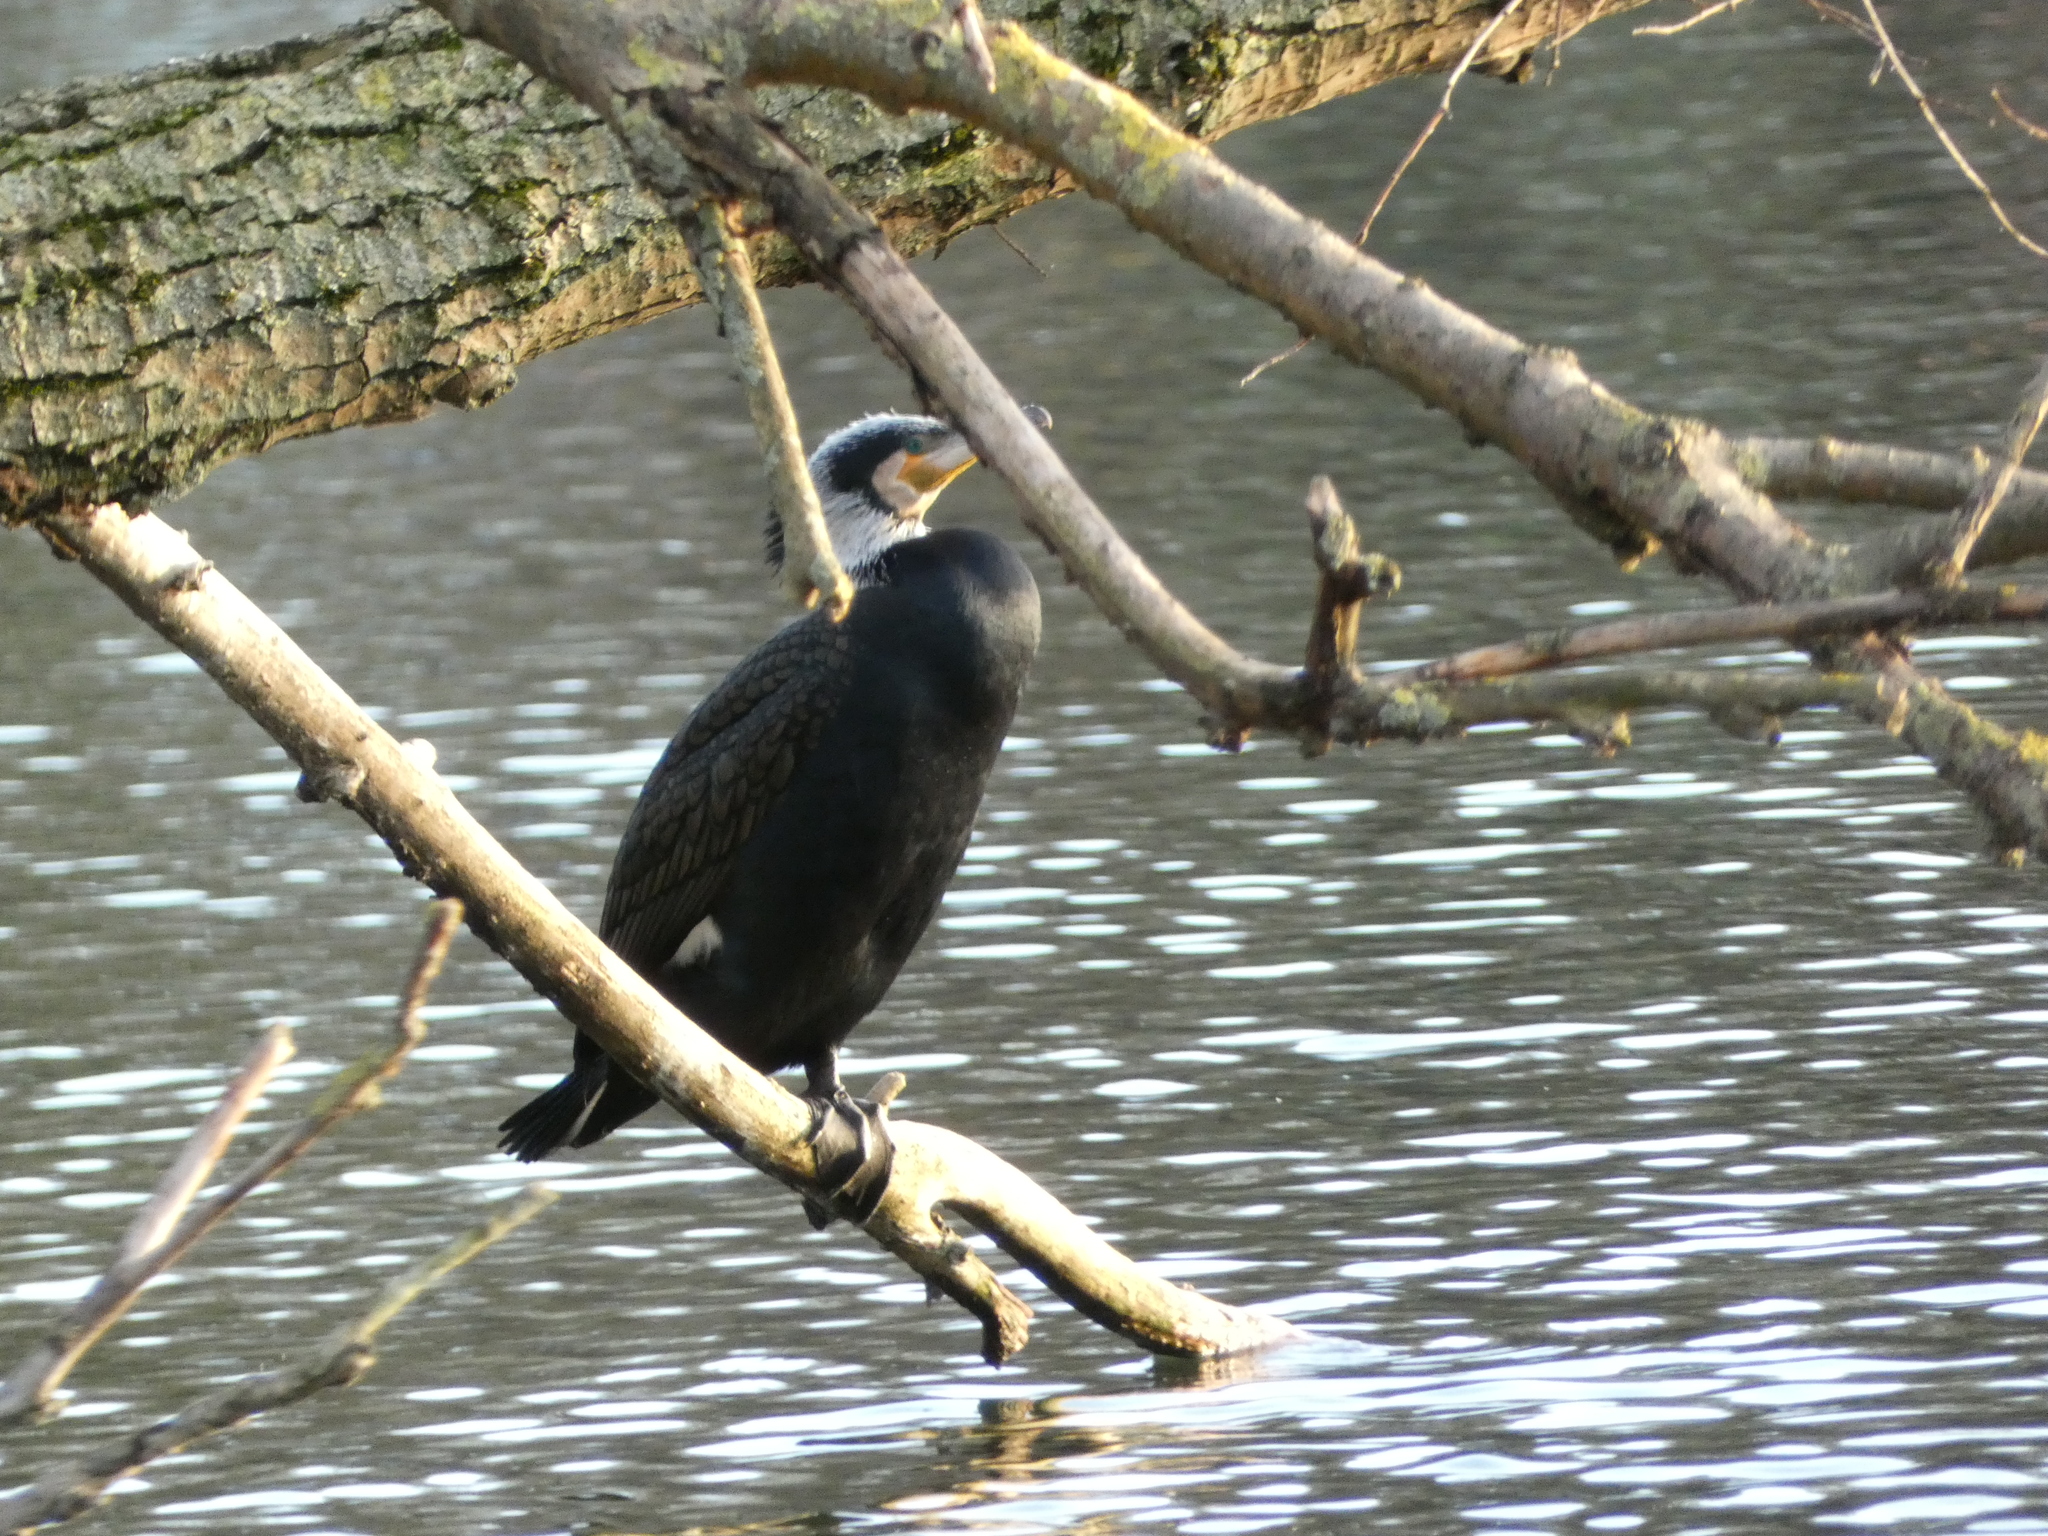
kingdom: Animalia
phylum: Chordata
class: Aves
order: Suliformes
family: Phalacrocoracidae
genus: Phalacrocorax
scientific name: Phalacrocorax carbo
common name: Great cormorant
